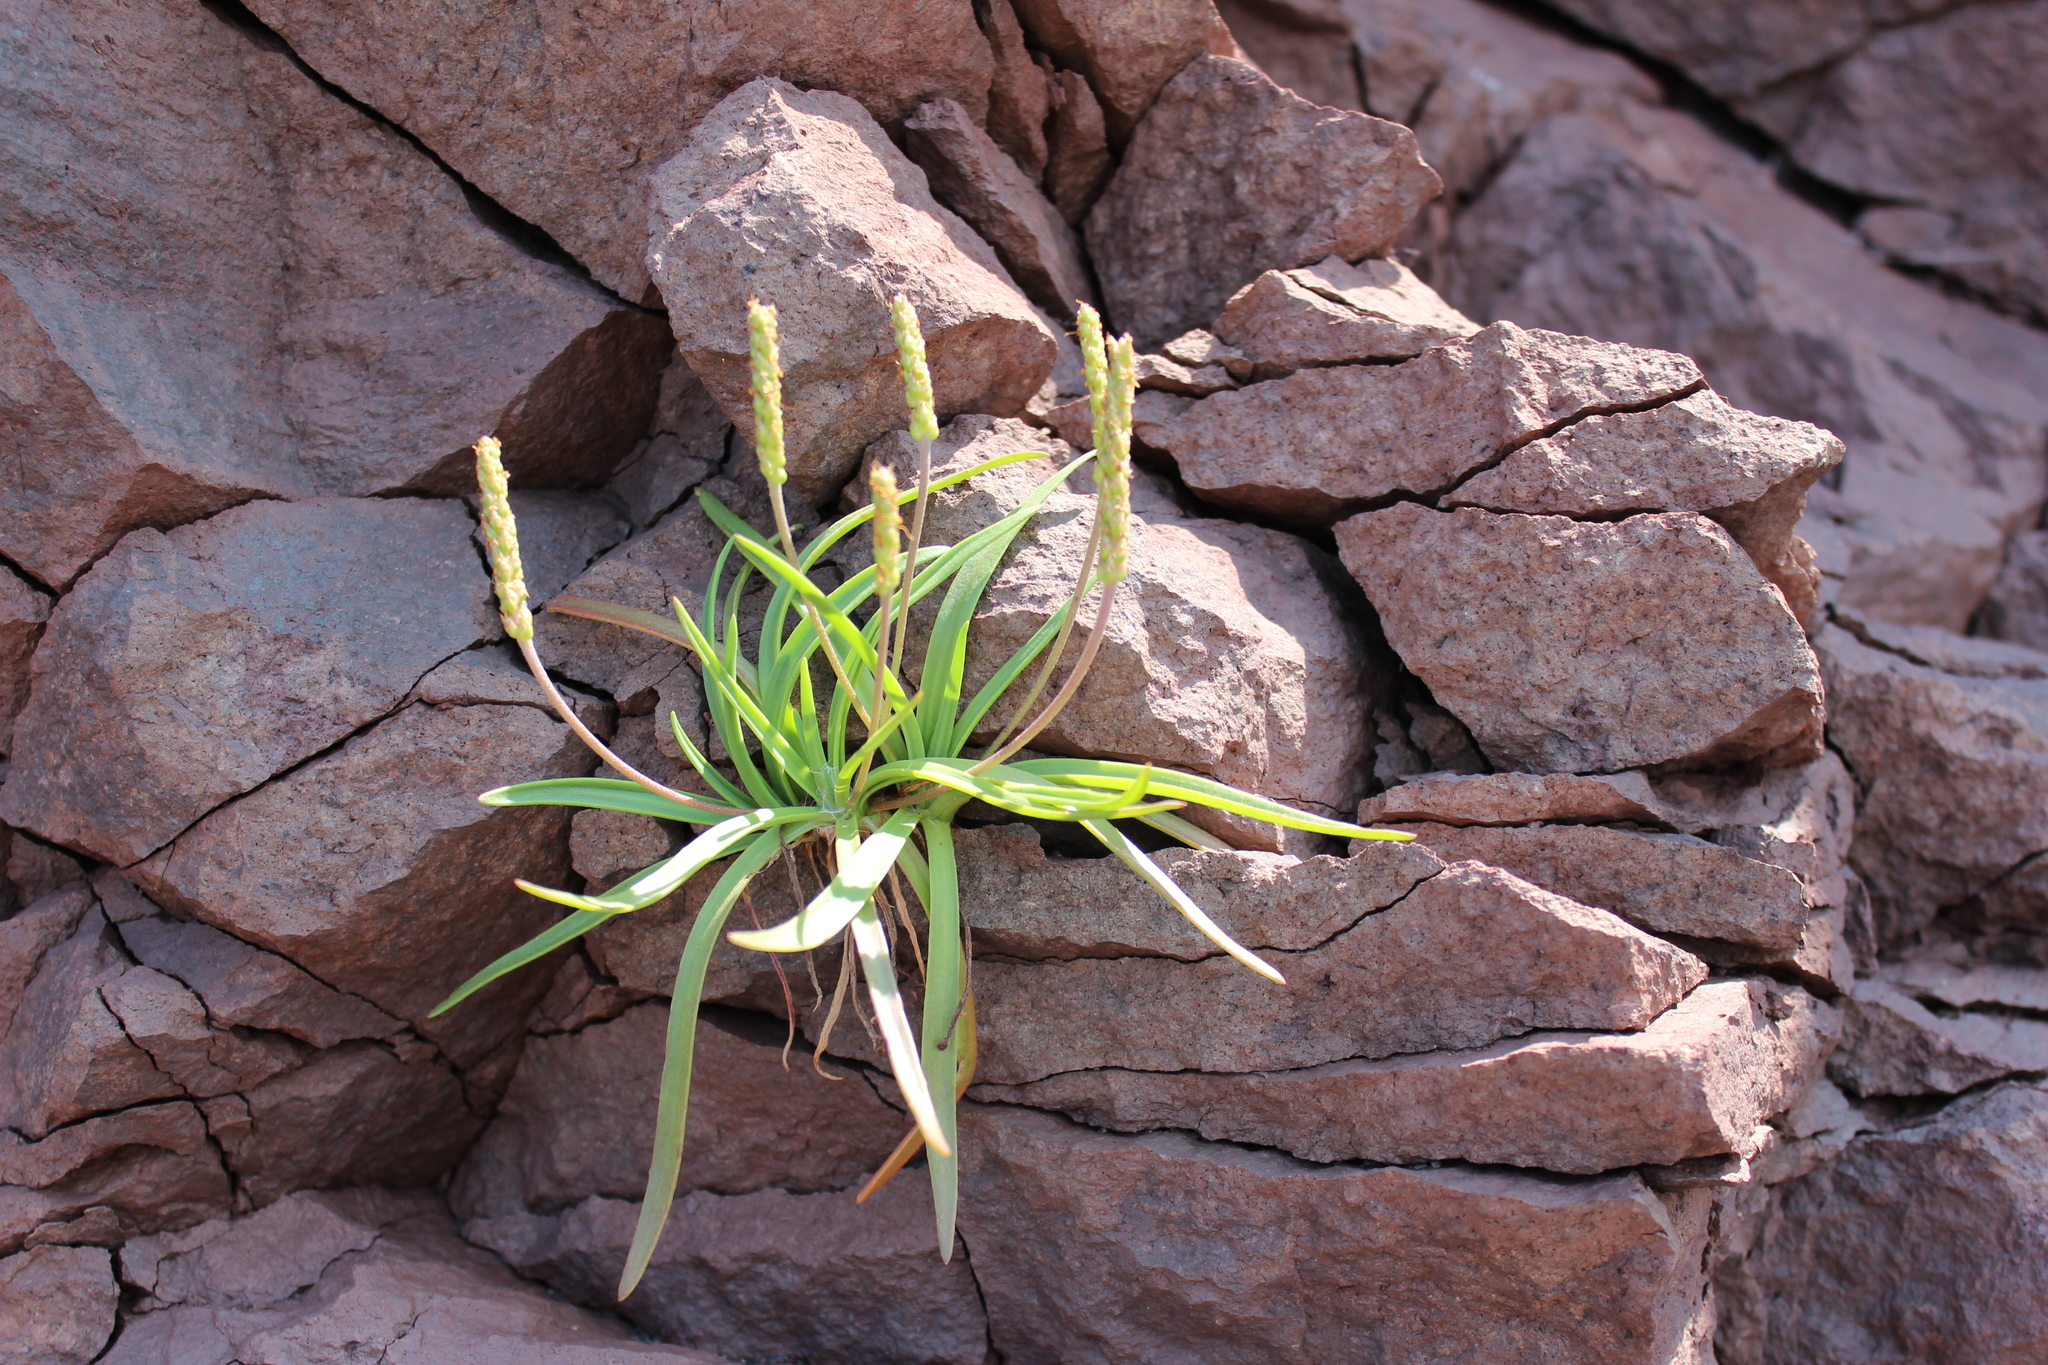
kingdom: Plantae
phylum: Tracheophyta
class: Magnoliopsida
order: Lamiales
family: Plantaginaceae
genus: Plantago
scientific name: Plantago maritima
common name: Sea plantain
